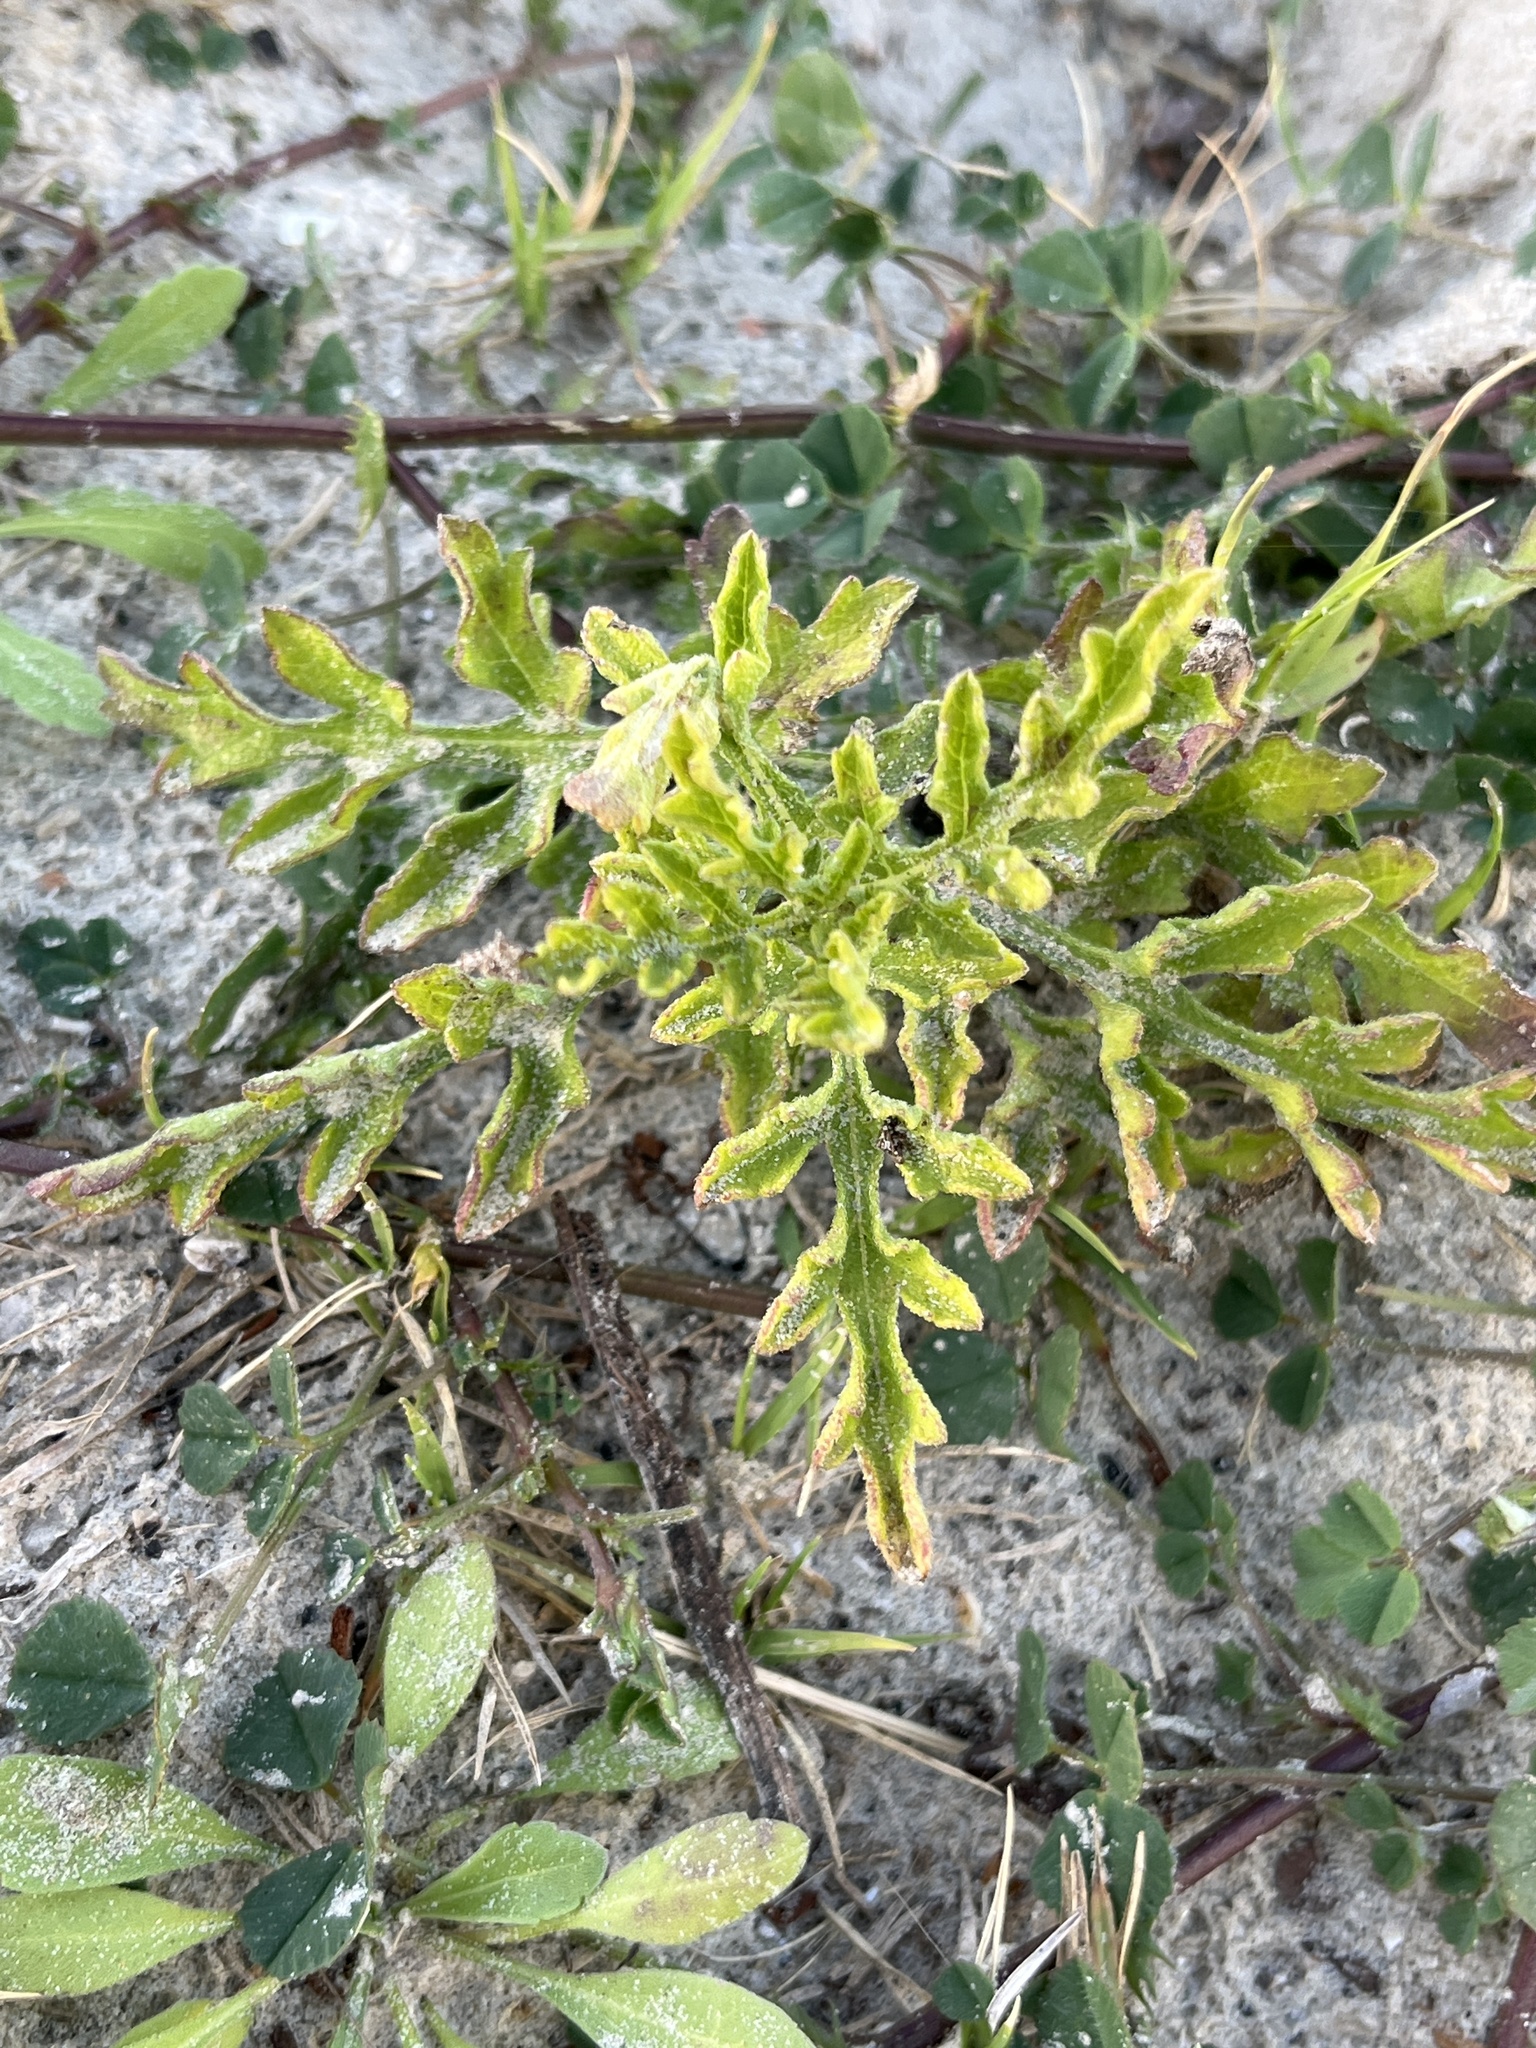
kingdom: Plantae
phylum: Tracheophyta
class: Magnoliopsida
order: Asterales
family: Asteraceae
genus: Ambrosia
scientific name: Ambrosia psilostachya
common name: Perennial ragweed
